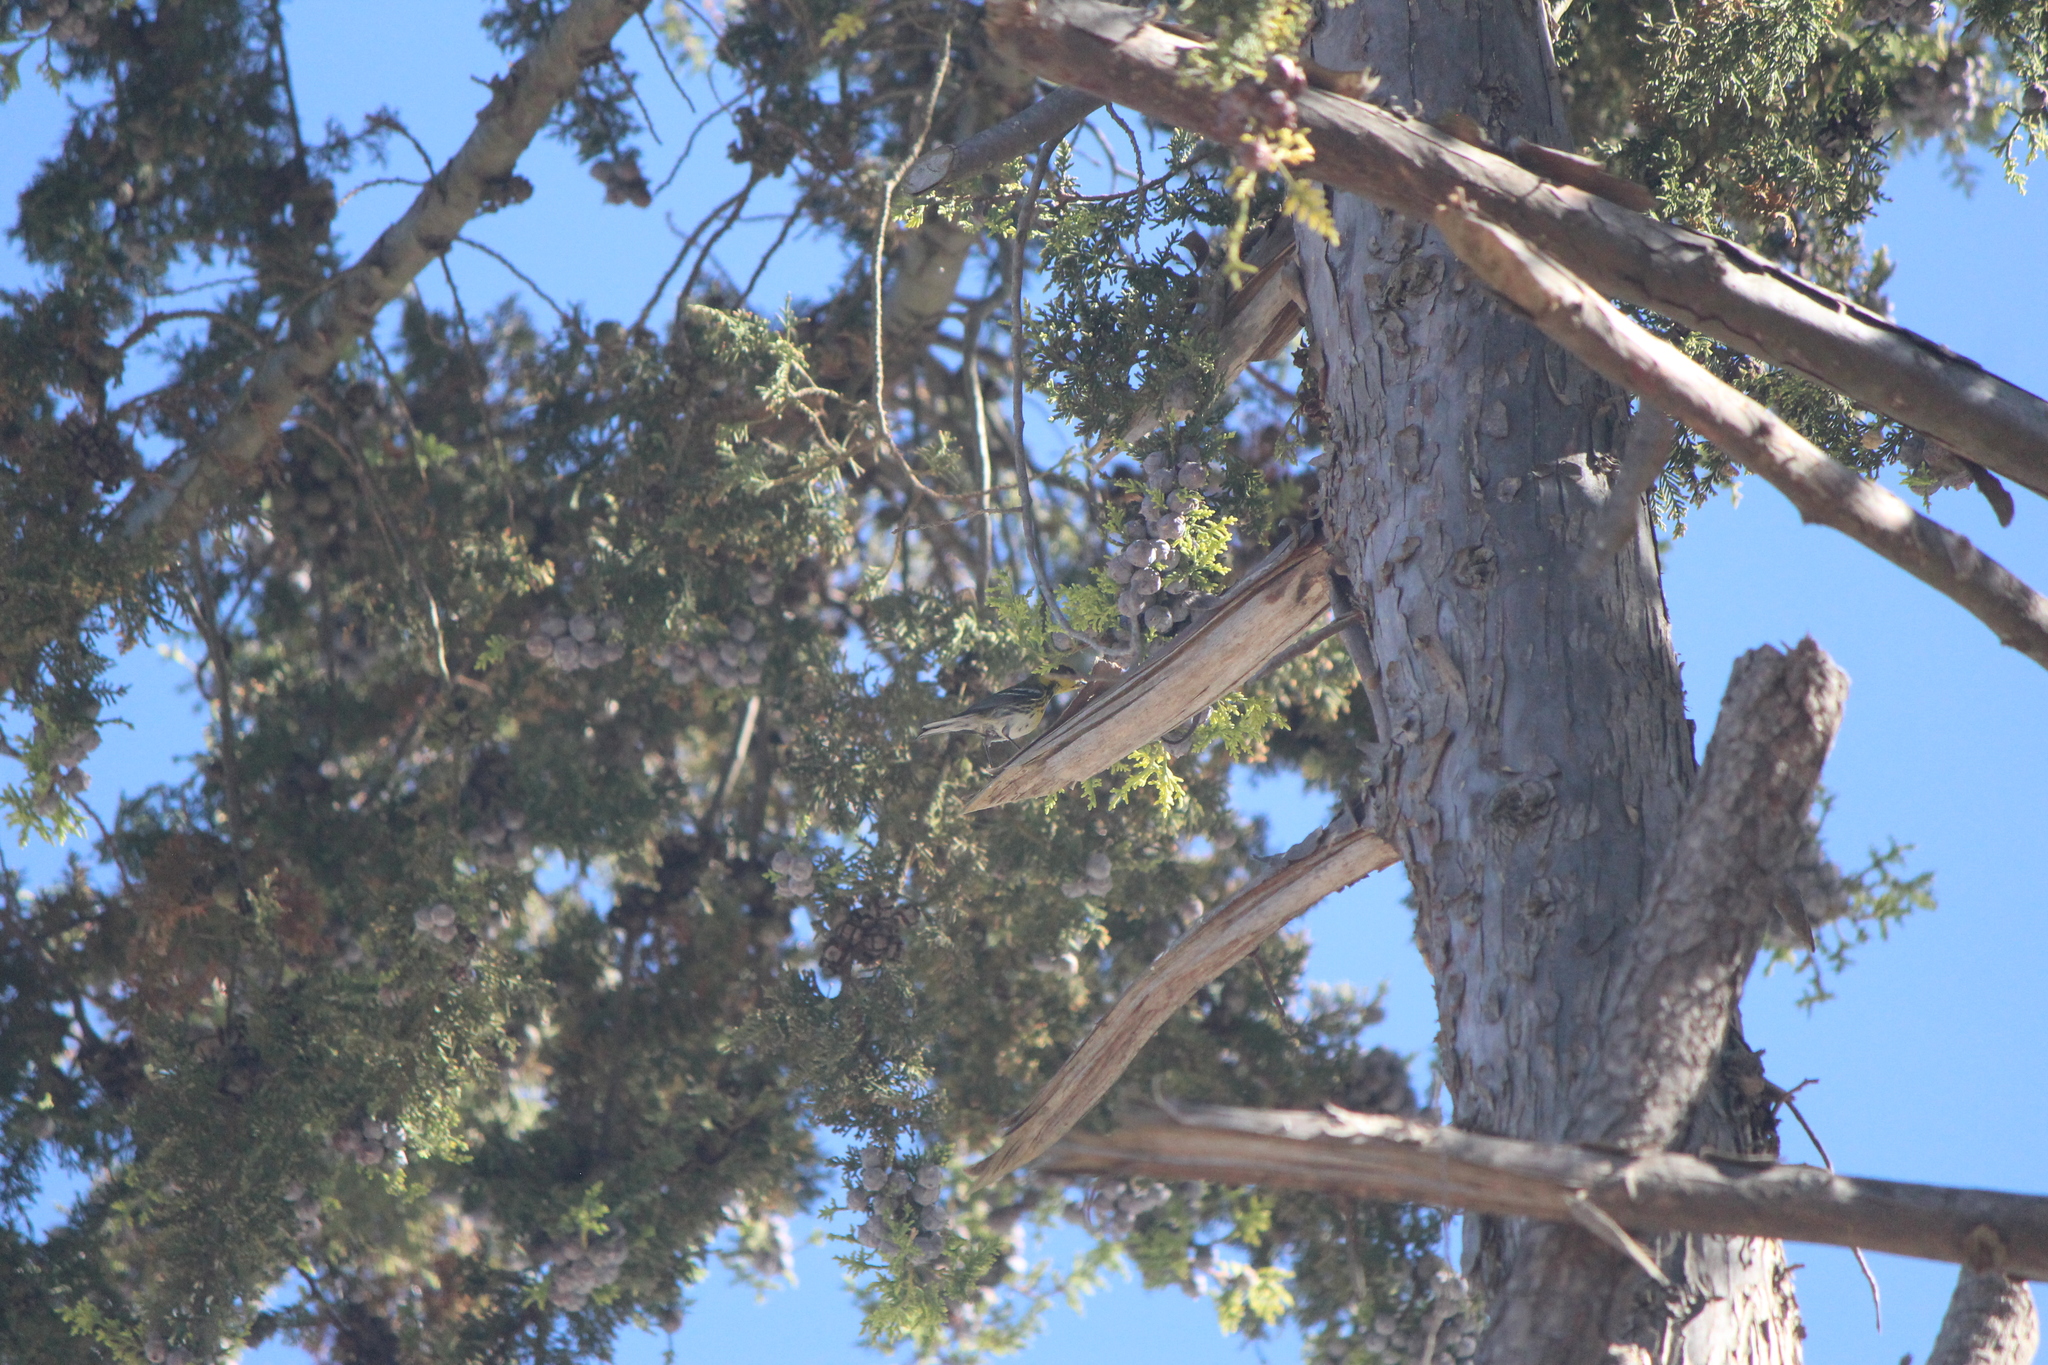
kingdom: Animalia
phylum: Chordata
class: Aves
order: Passeriformes
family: Parulidae
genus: Setophaga
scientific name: Setophaga townsendi
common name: Townsend's warbler
